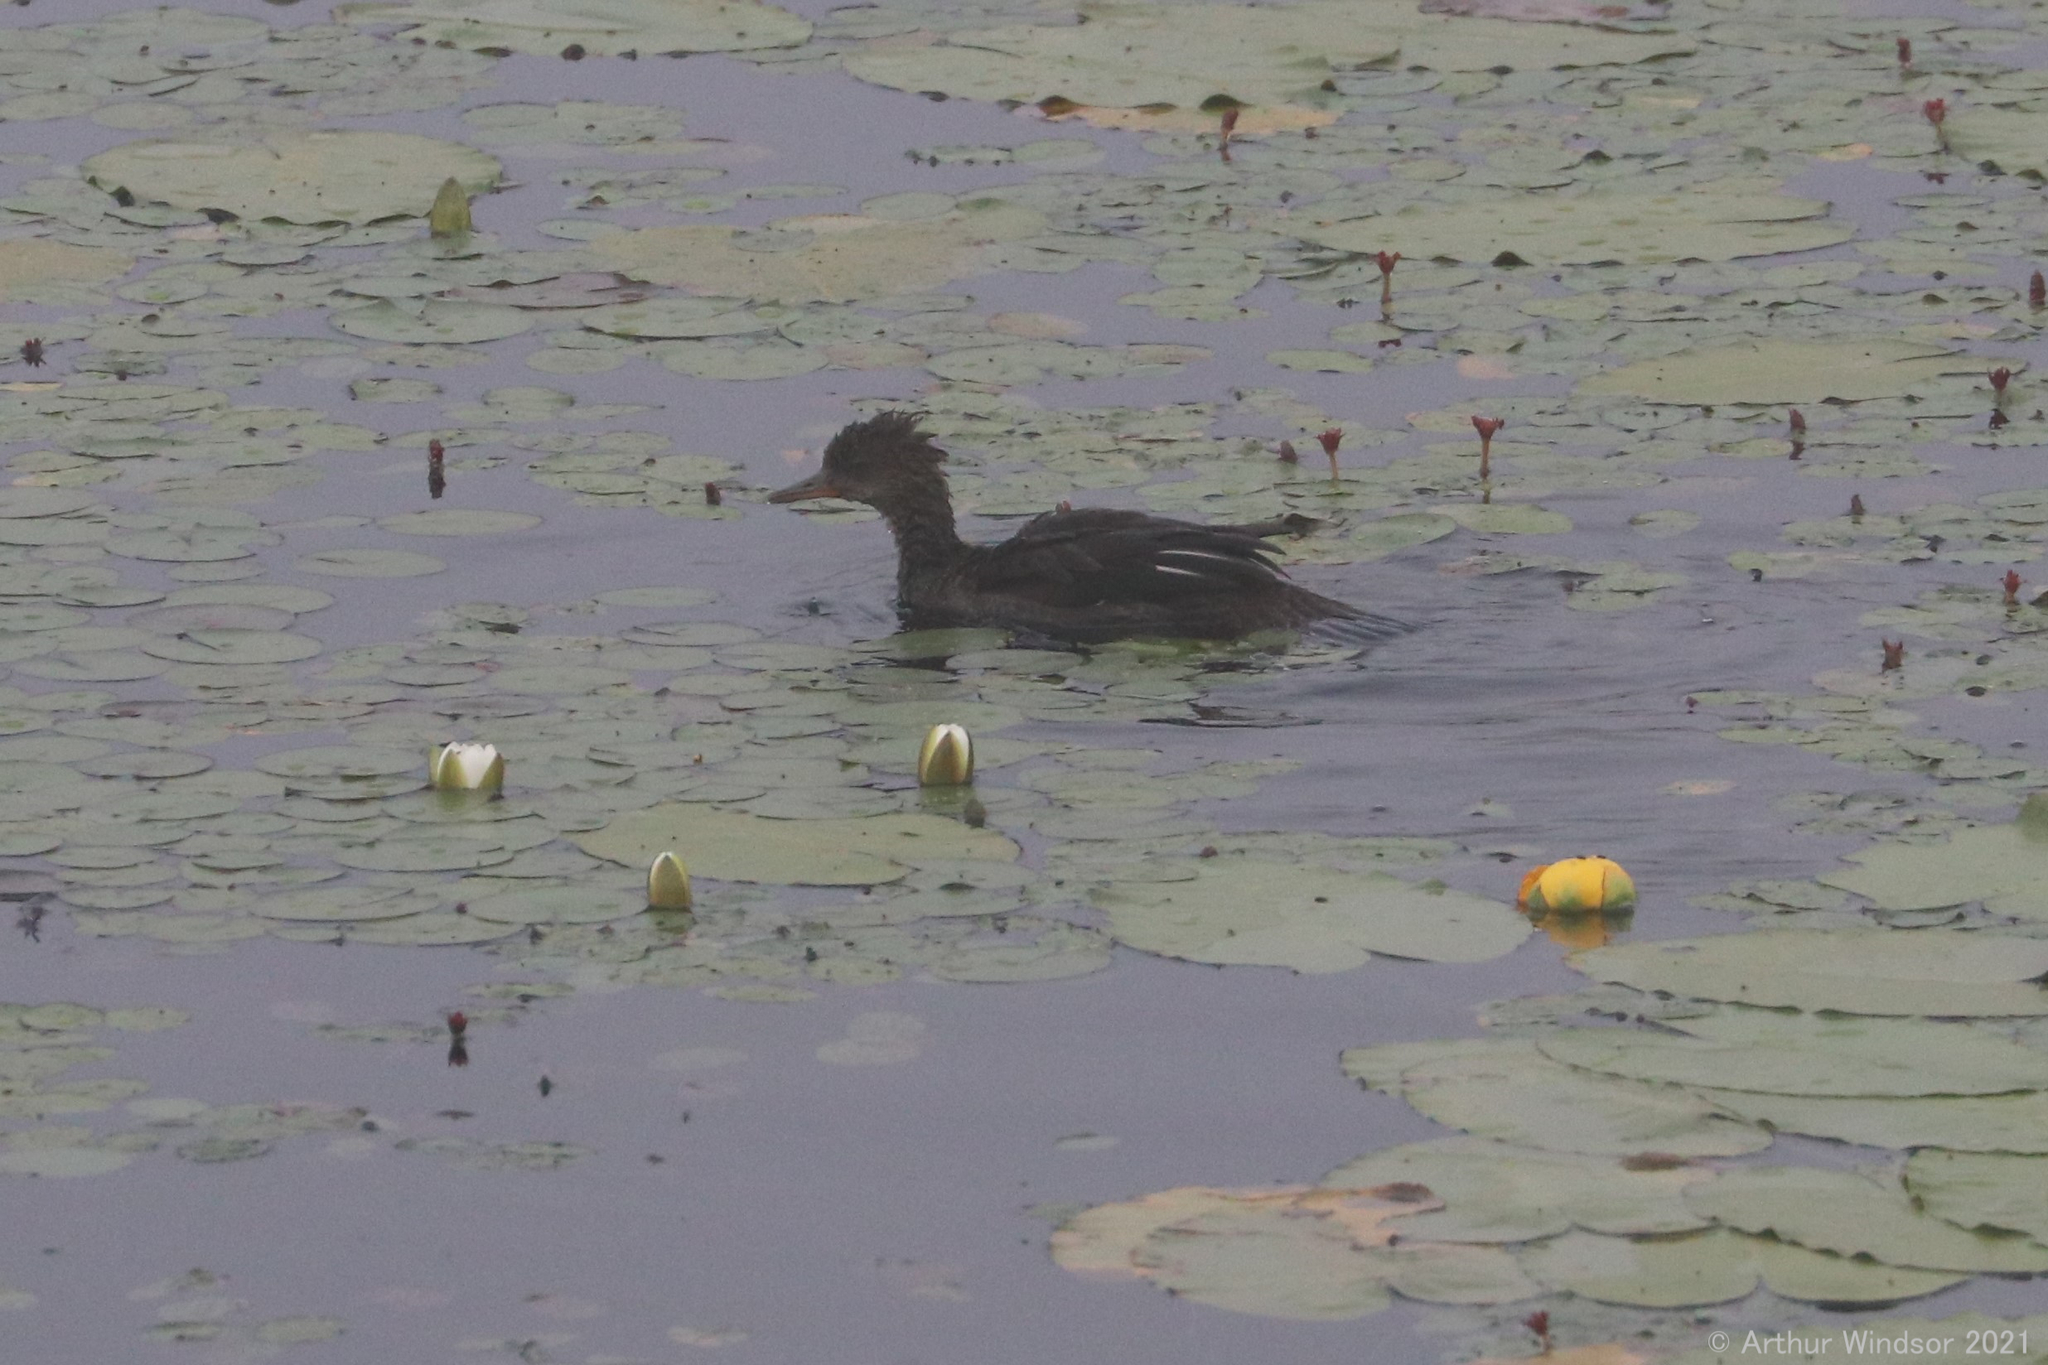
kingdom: Animalia
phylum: Chordata
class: Aves
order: Anseriformes
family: Anatidae
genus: Lophodytes
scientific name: Lophodytes cucullatus
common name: Hooded merganser
